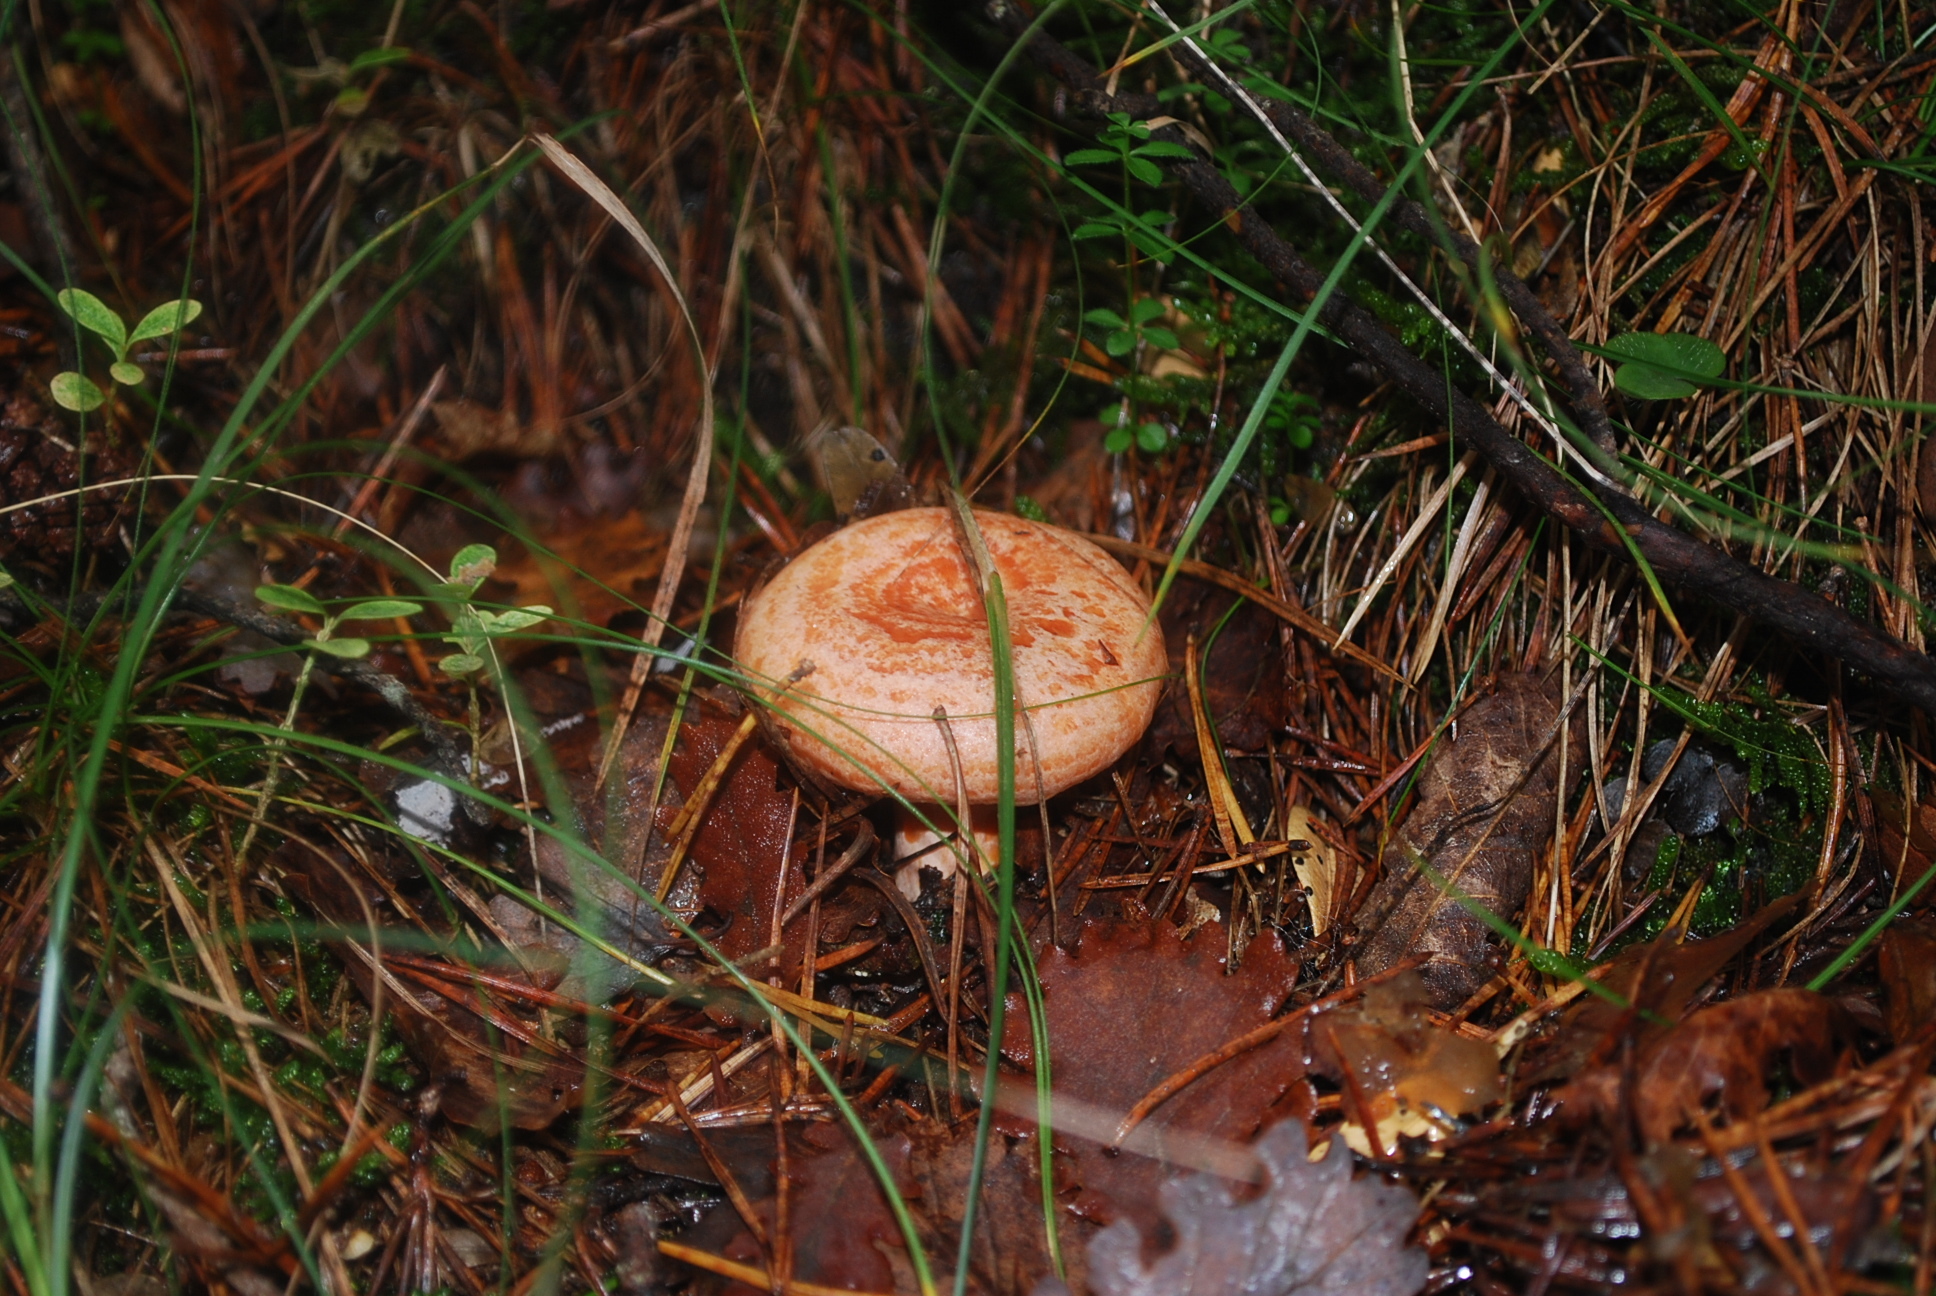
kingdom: Fungi
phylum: Basidiomycota
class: Agaricomycetes
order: Russulales
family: Russulaceae
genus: Lactarius
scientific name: Lactarius deliciosus
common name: Saffron milk-cap
